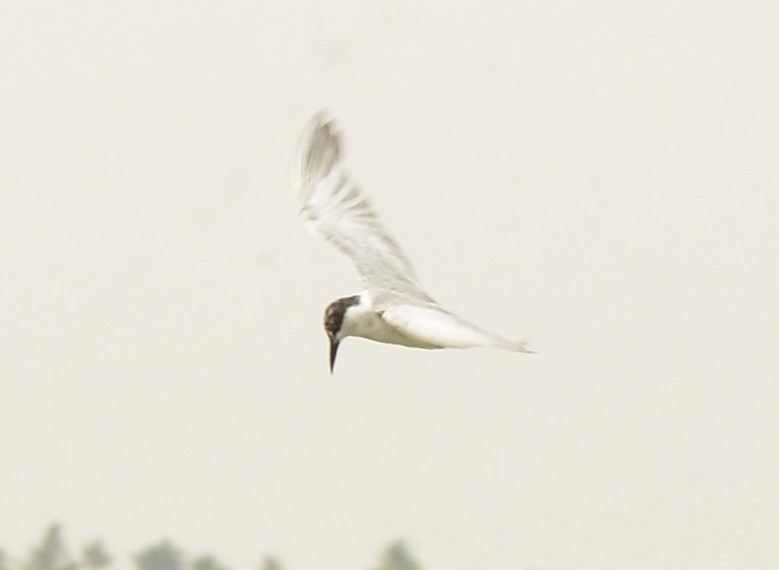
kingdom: Animalia
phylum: Chordata
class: Aves
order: Charadriiformes
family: Laridae
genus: Sternula
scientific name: Sternula albifrons
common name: Little tern
